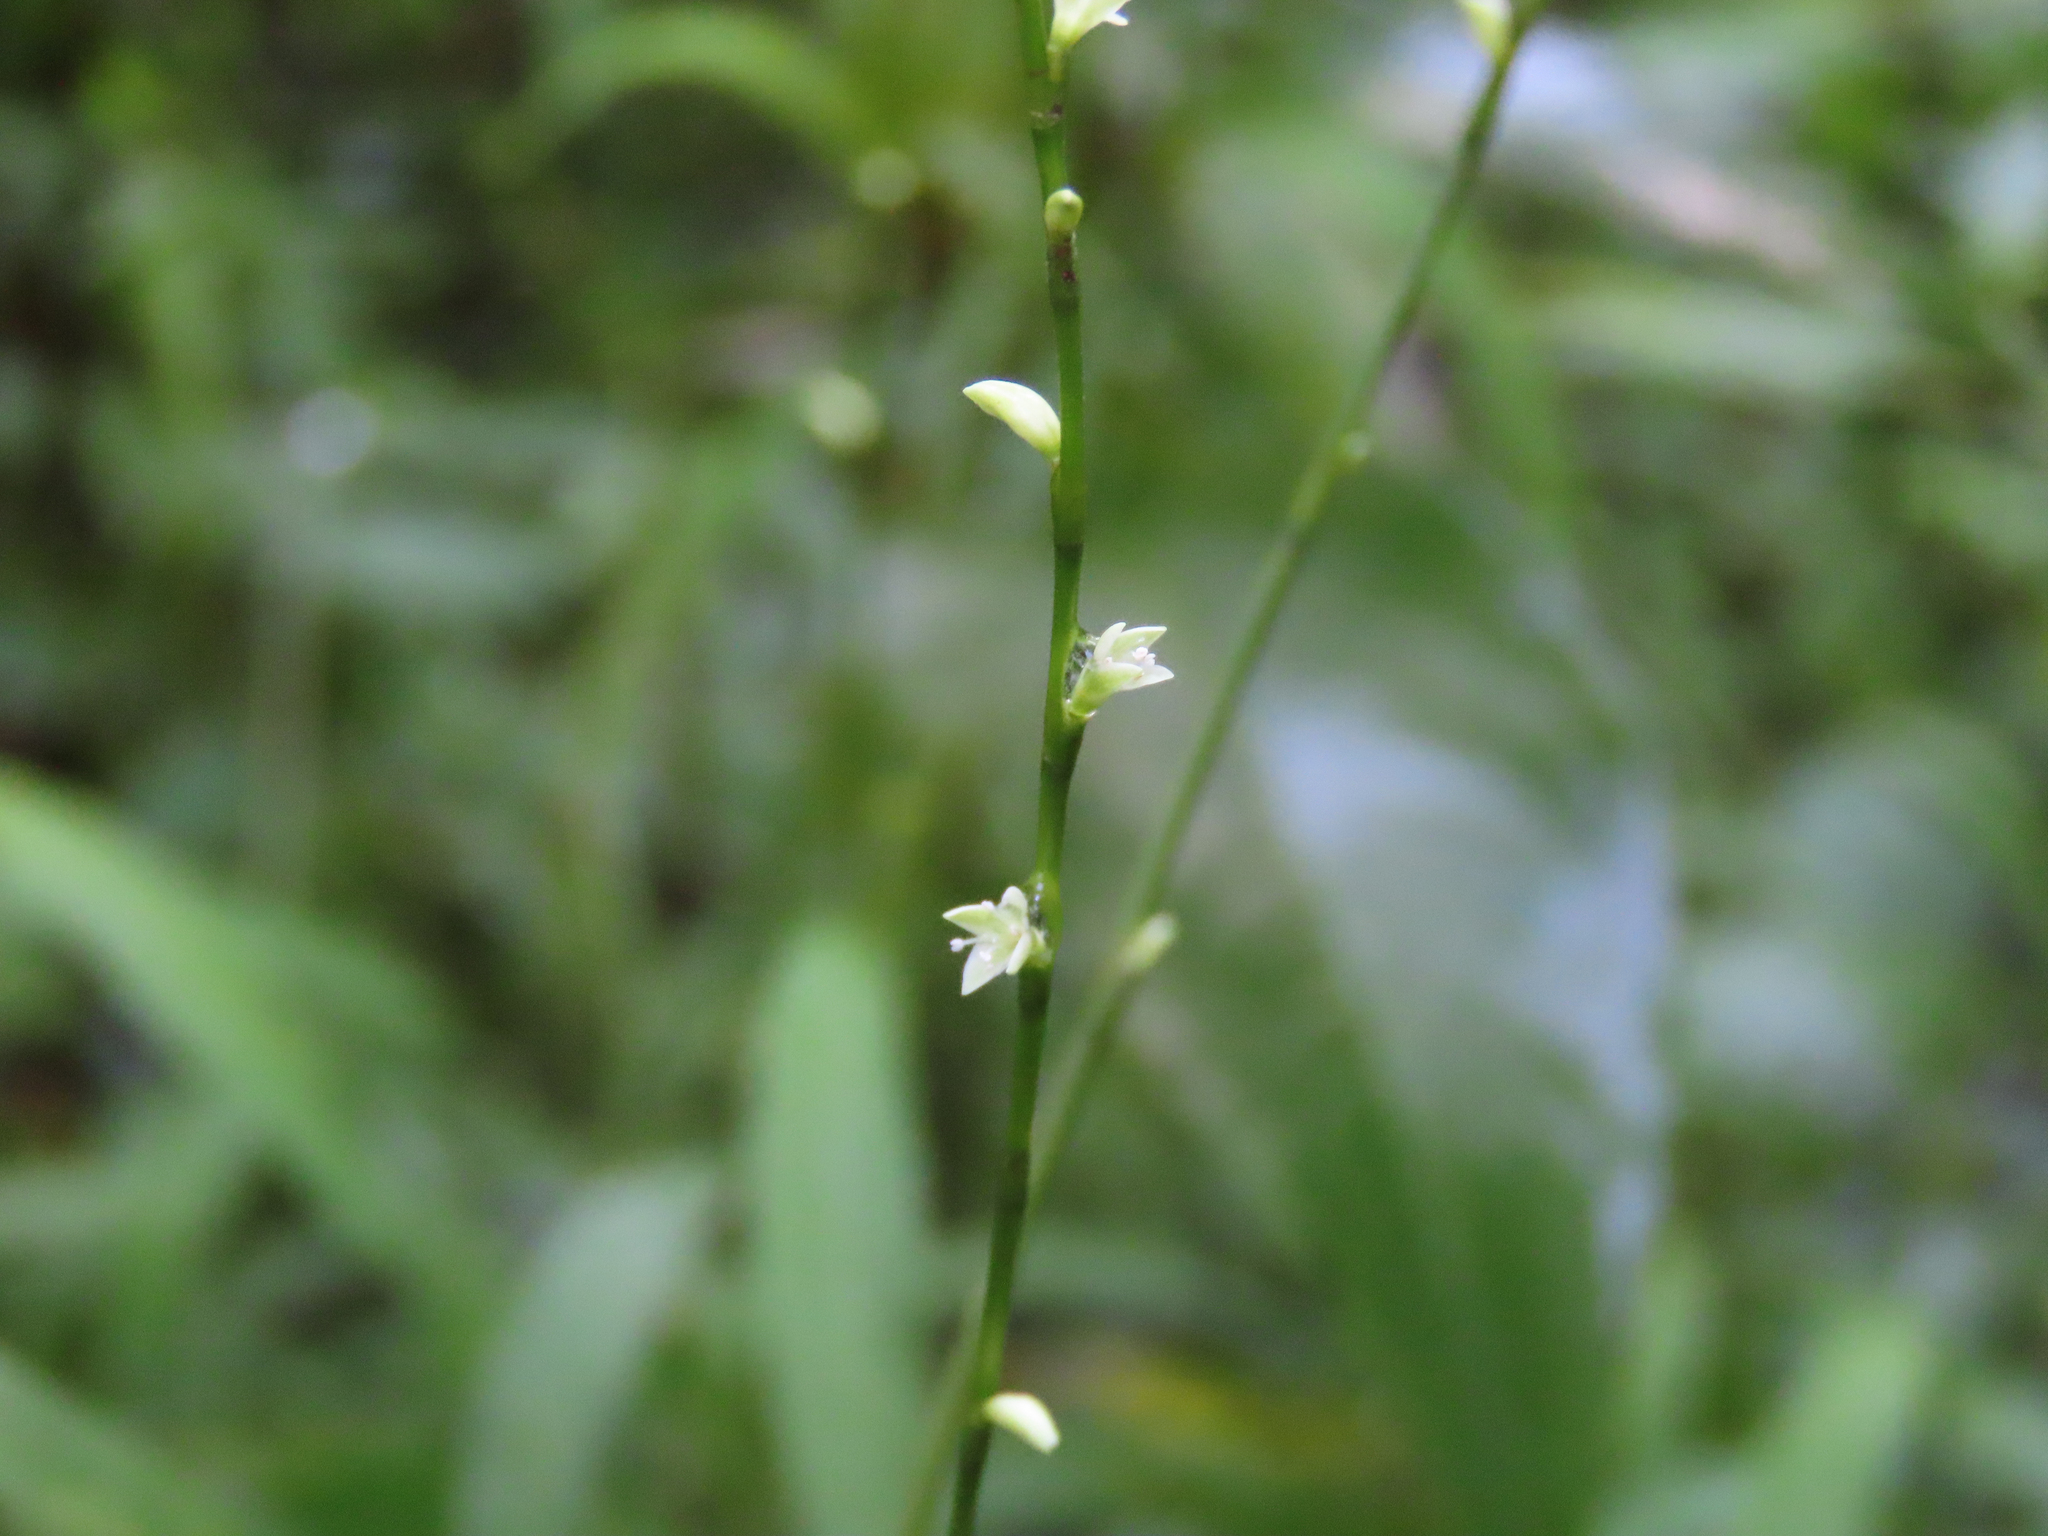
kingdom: Plantae
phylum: Tracheophyta
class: Magnoliopsida
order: Caryophyllales
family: Polygonaceae
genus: Persicaria
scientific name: Persicaria virginiana
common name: Jumpseed
